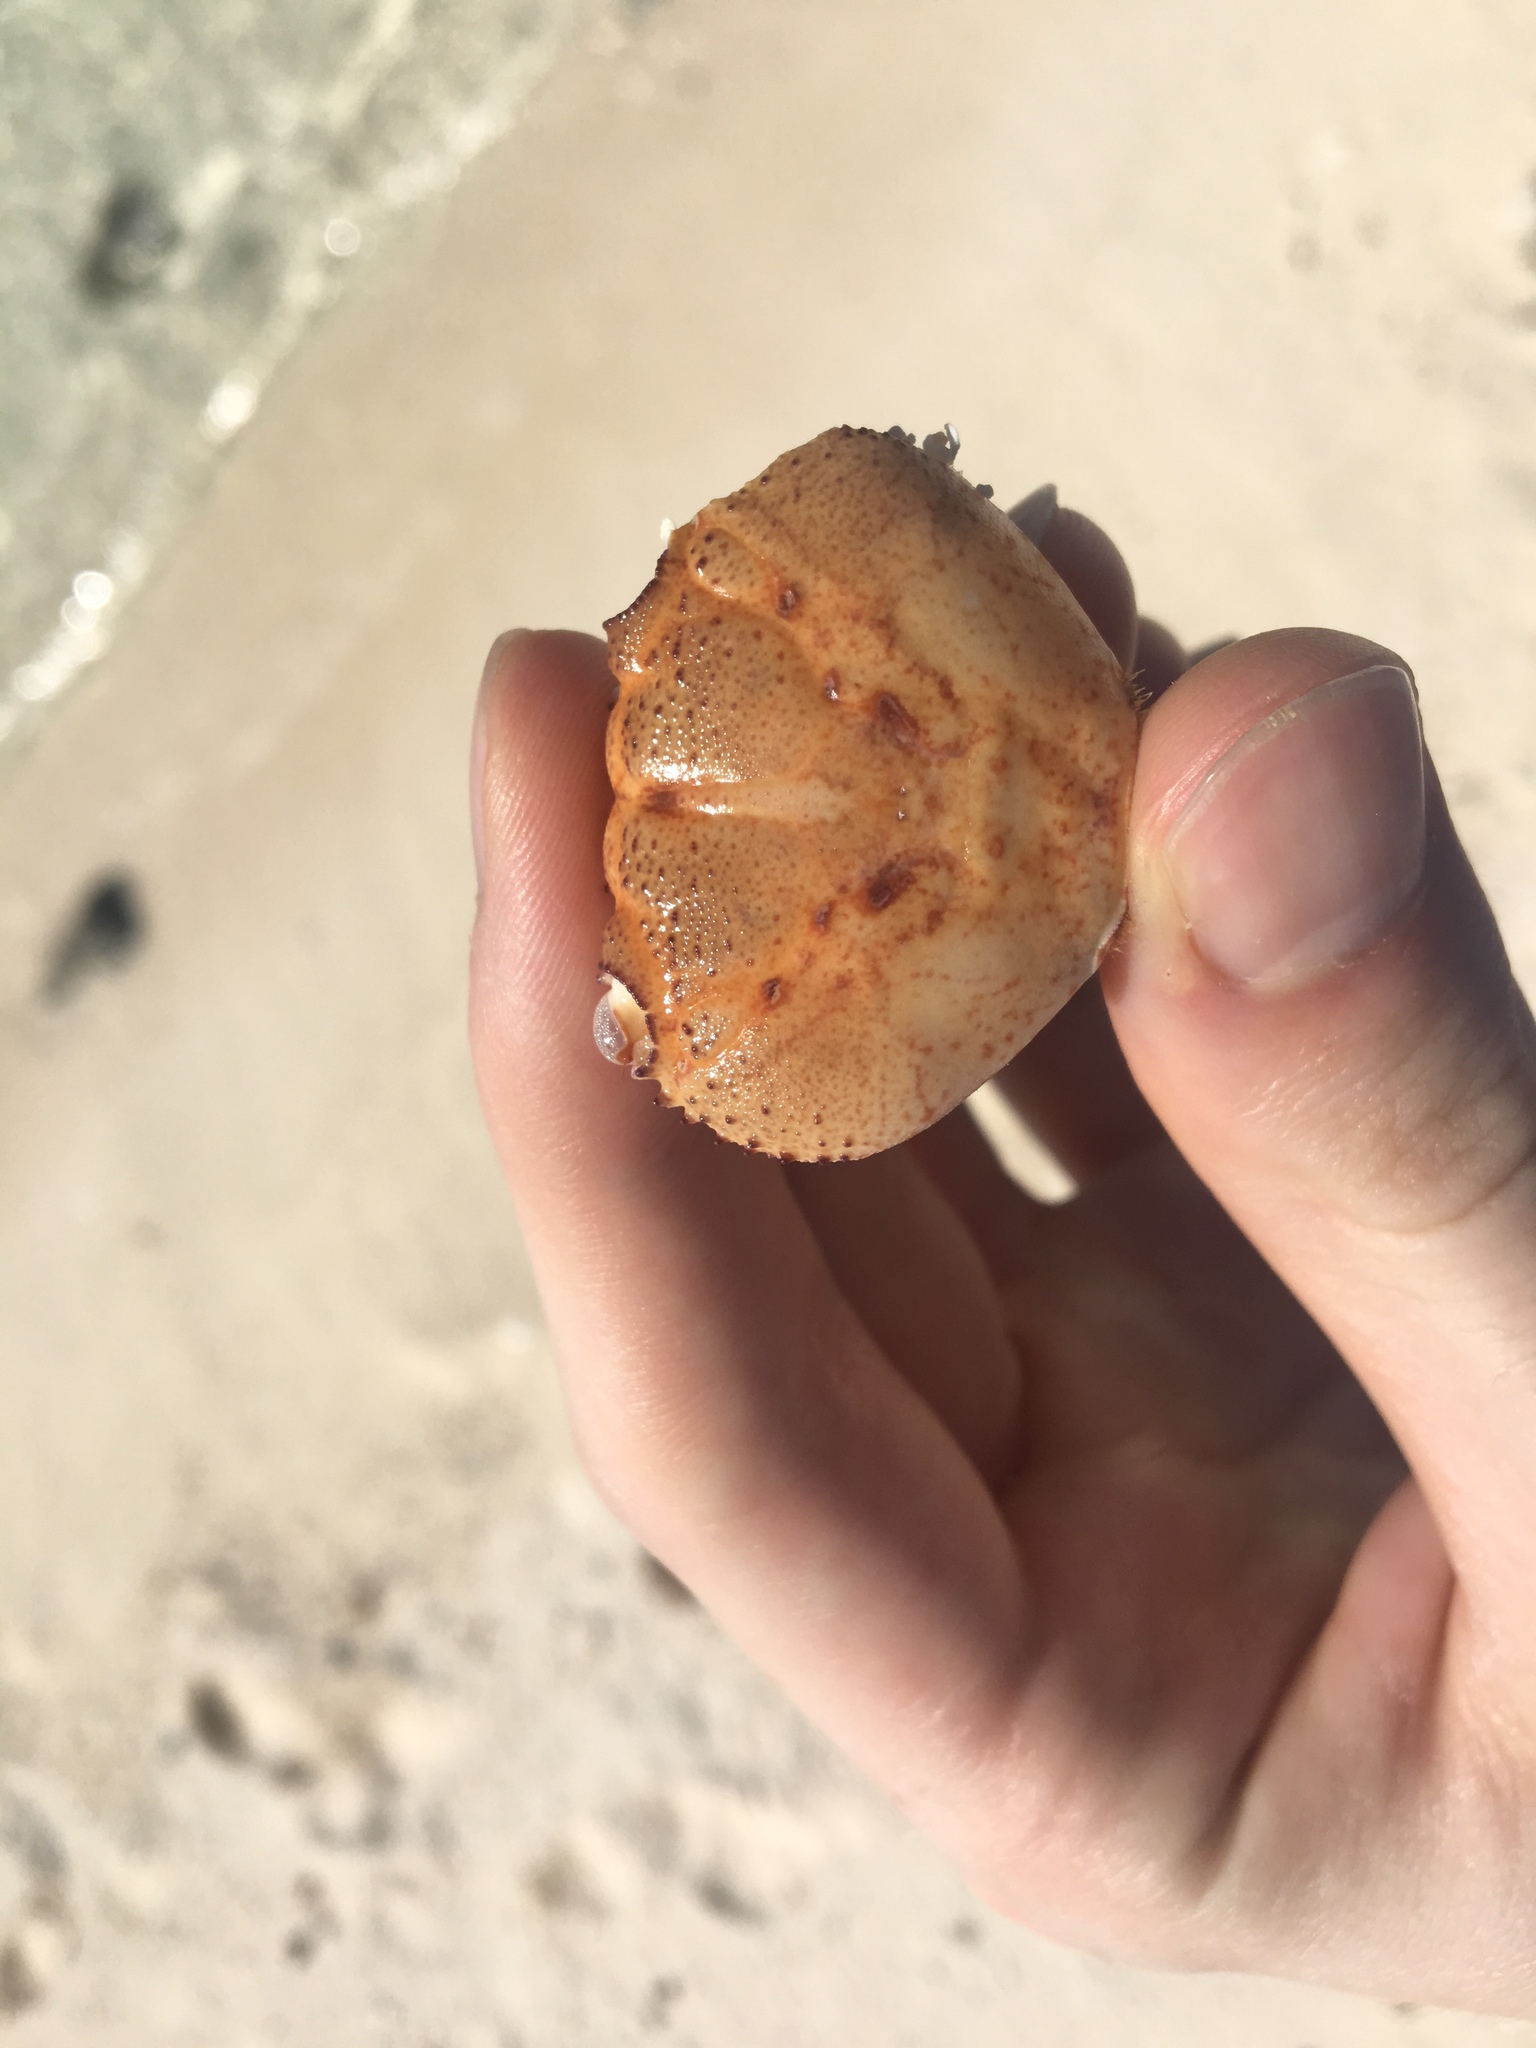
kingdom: Animalia
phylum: Arthropoda
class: Malacostraca
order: Decapoda
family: Eriphiidae
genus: Eriphia
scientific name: Eriphia sebana
